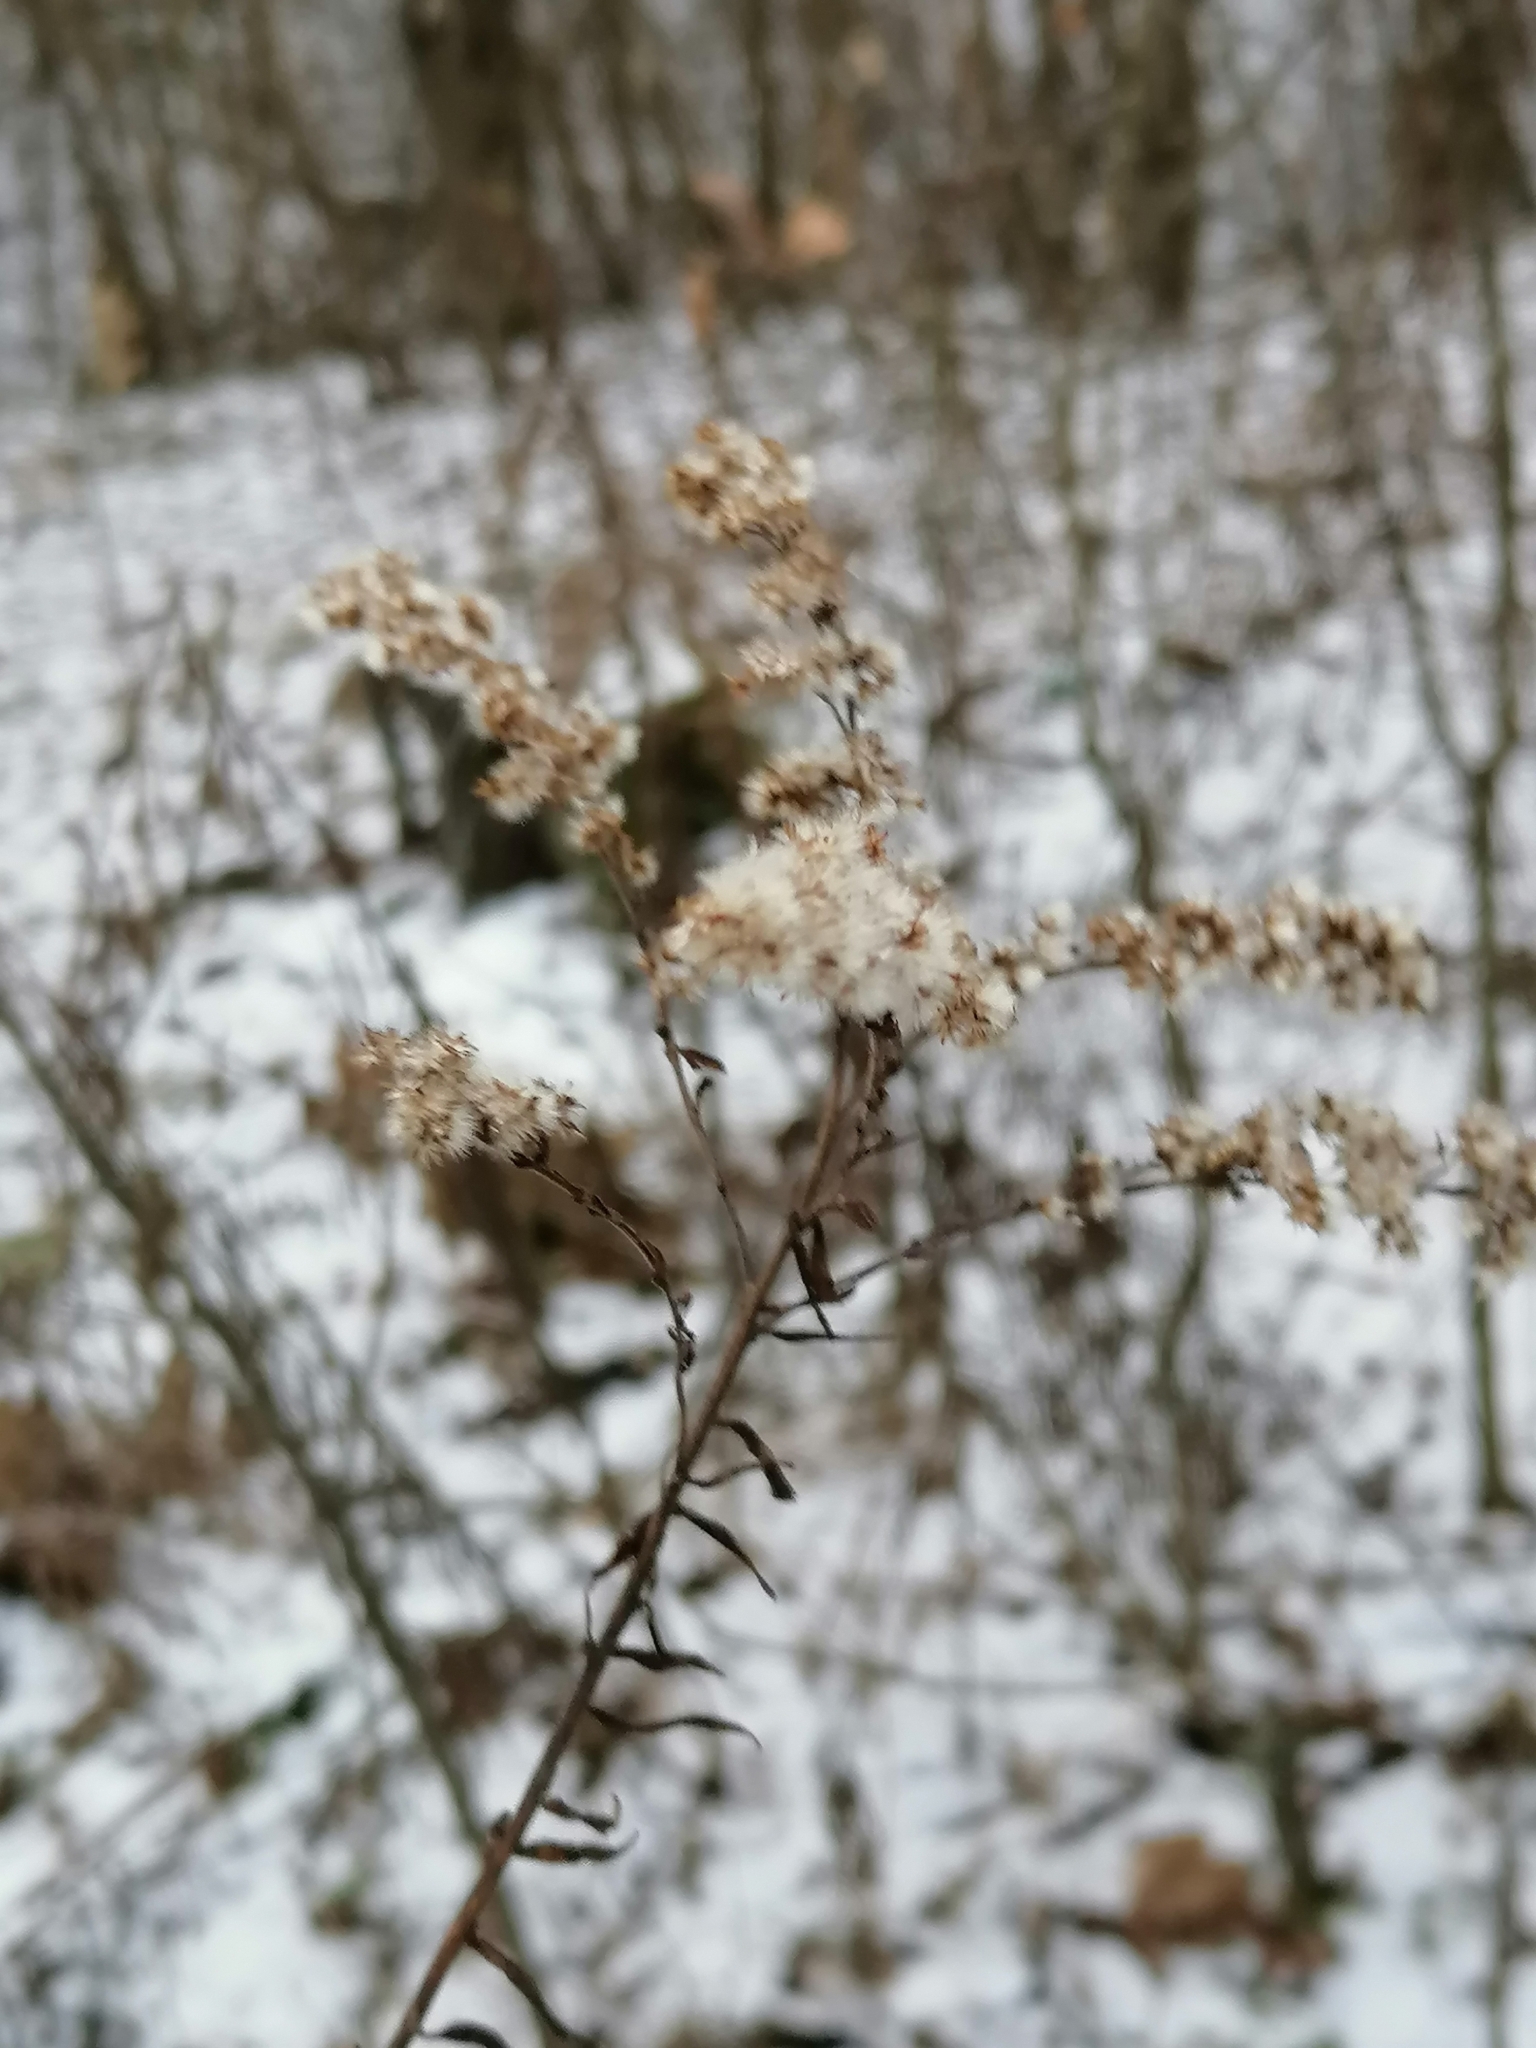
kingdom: Plantae
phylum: Tracheophyta
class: Magnoliopsida
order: Asterales
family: Asteraceae
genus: Solidago
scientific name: Solidago canadensis
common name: Canada goldenrod
